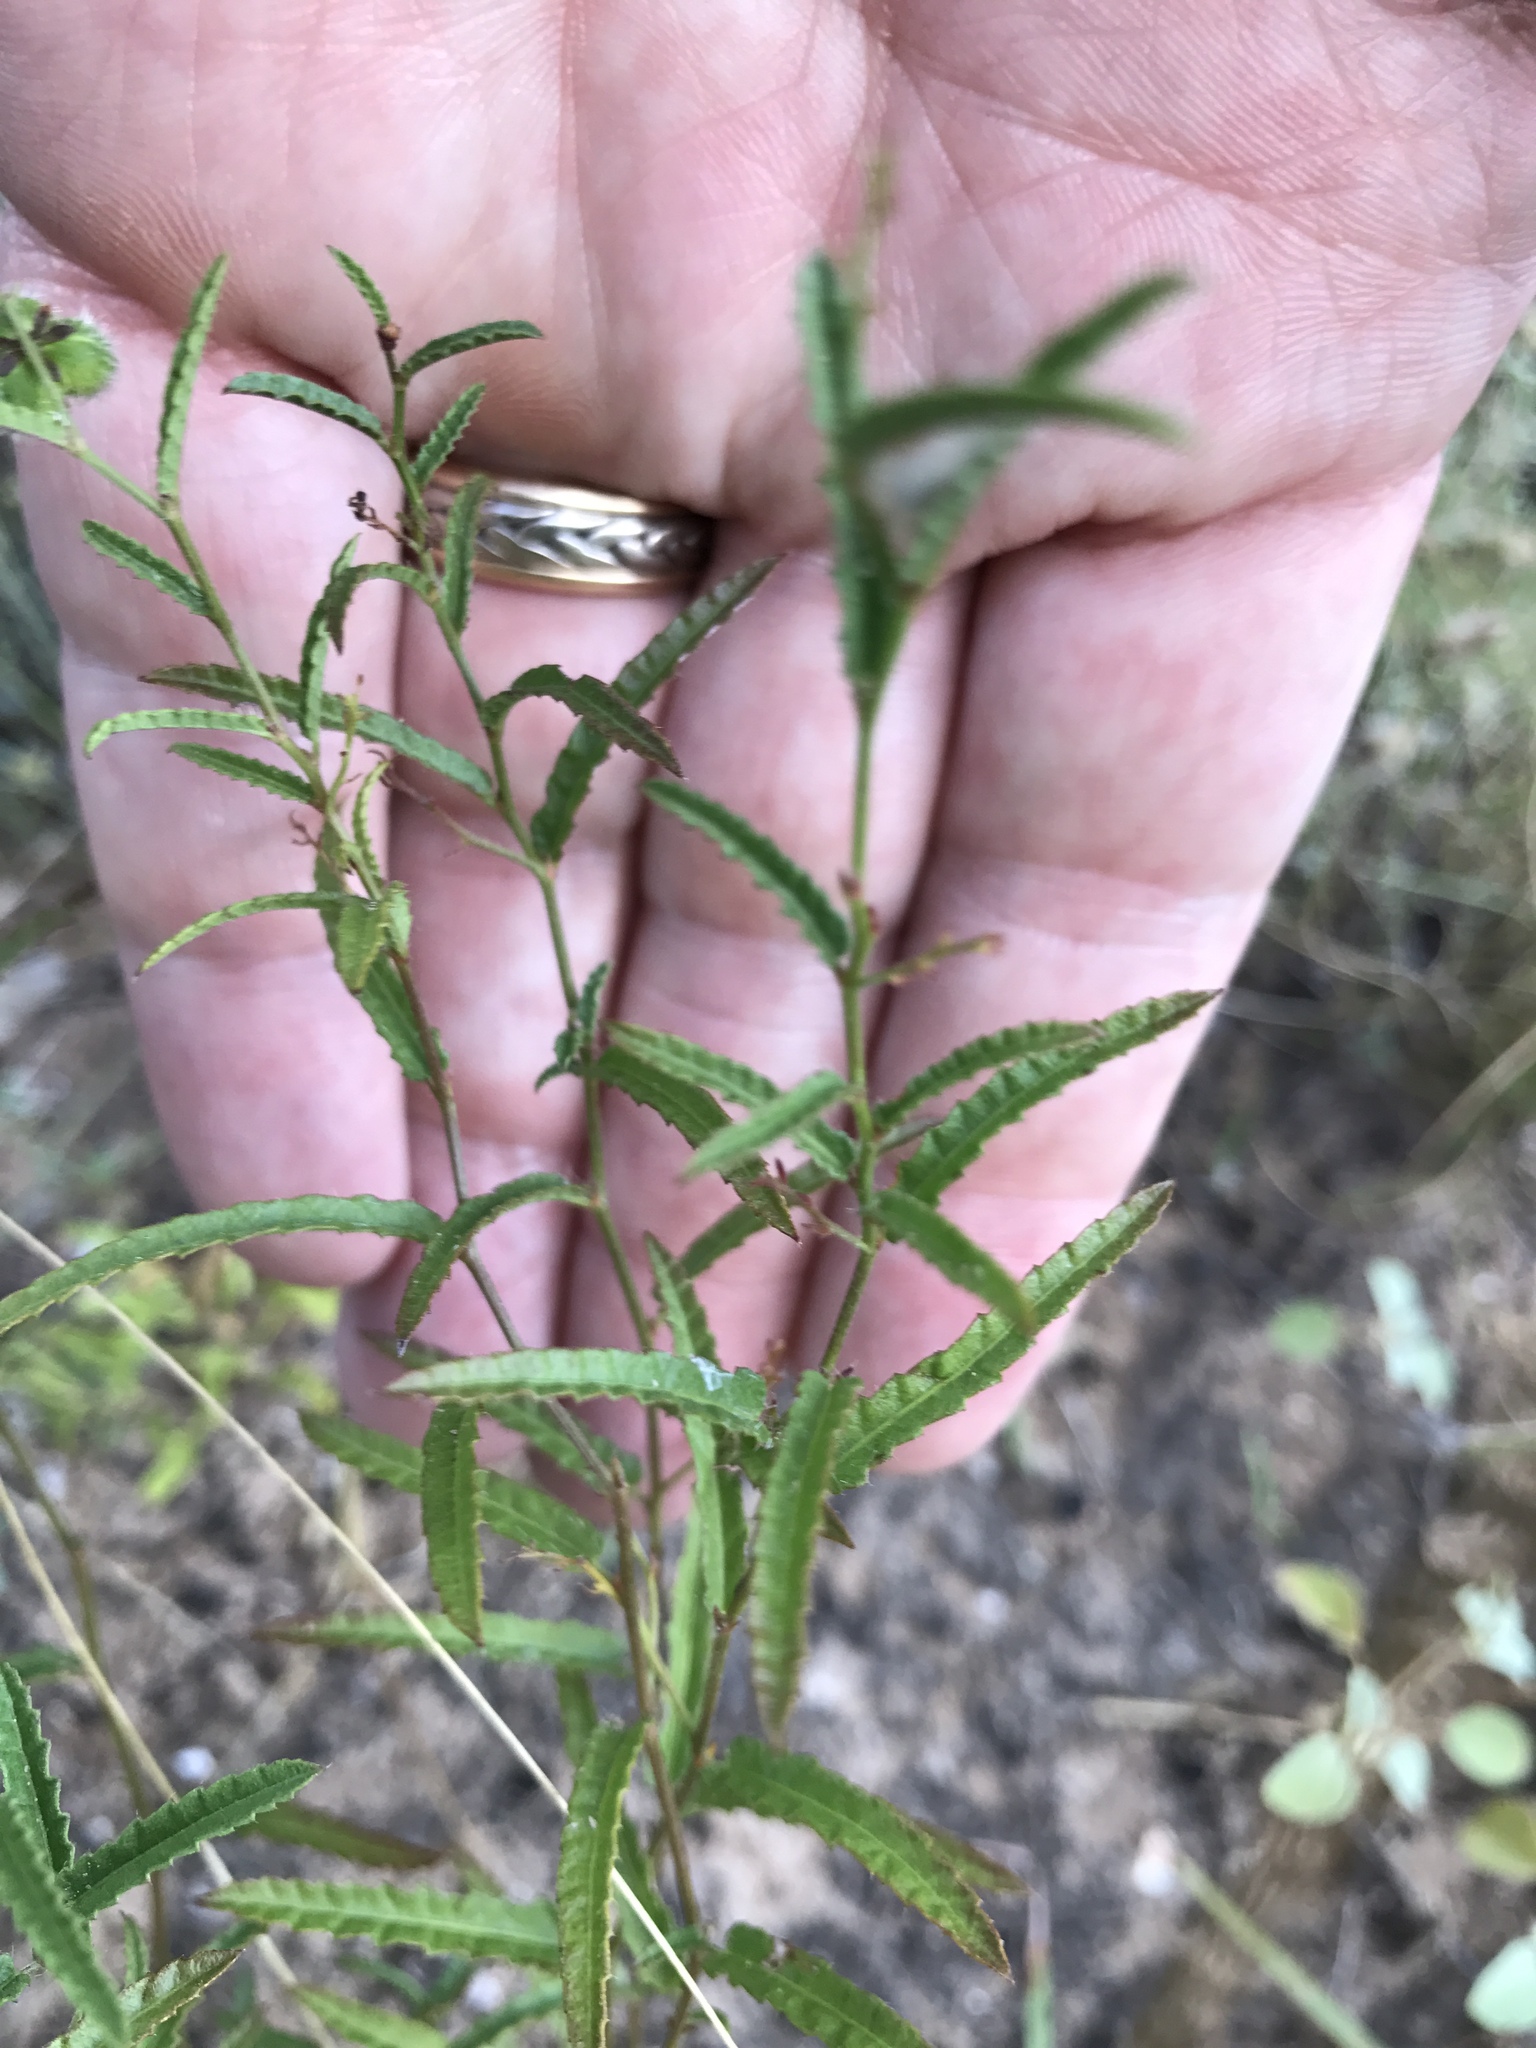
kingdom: Plantae
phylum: Tracheophyta
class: Magnoliopsida
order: Malpighiales
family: Euphorbiaceae
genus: Tragia
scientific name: Tragia ramosa
